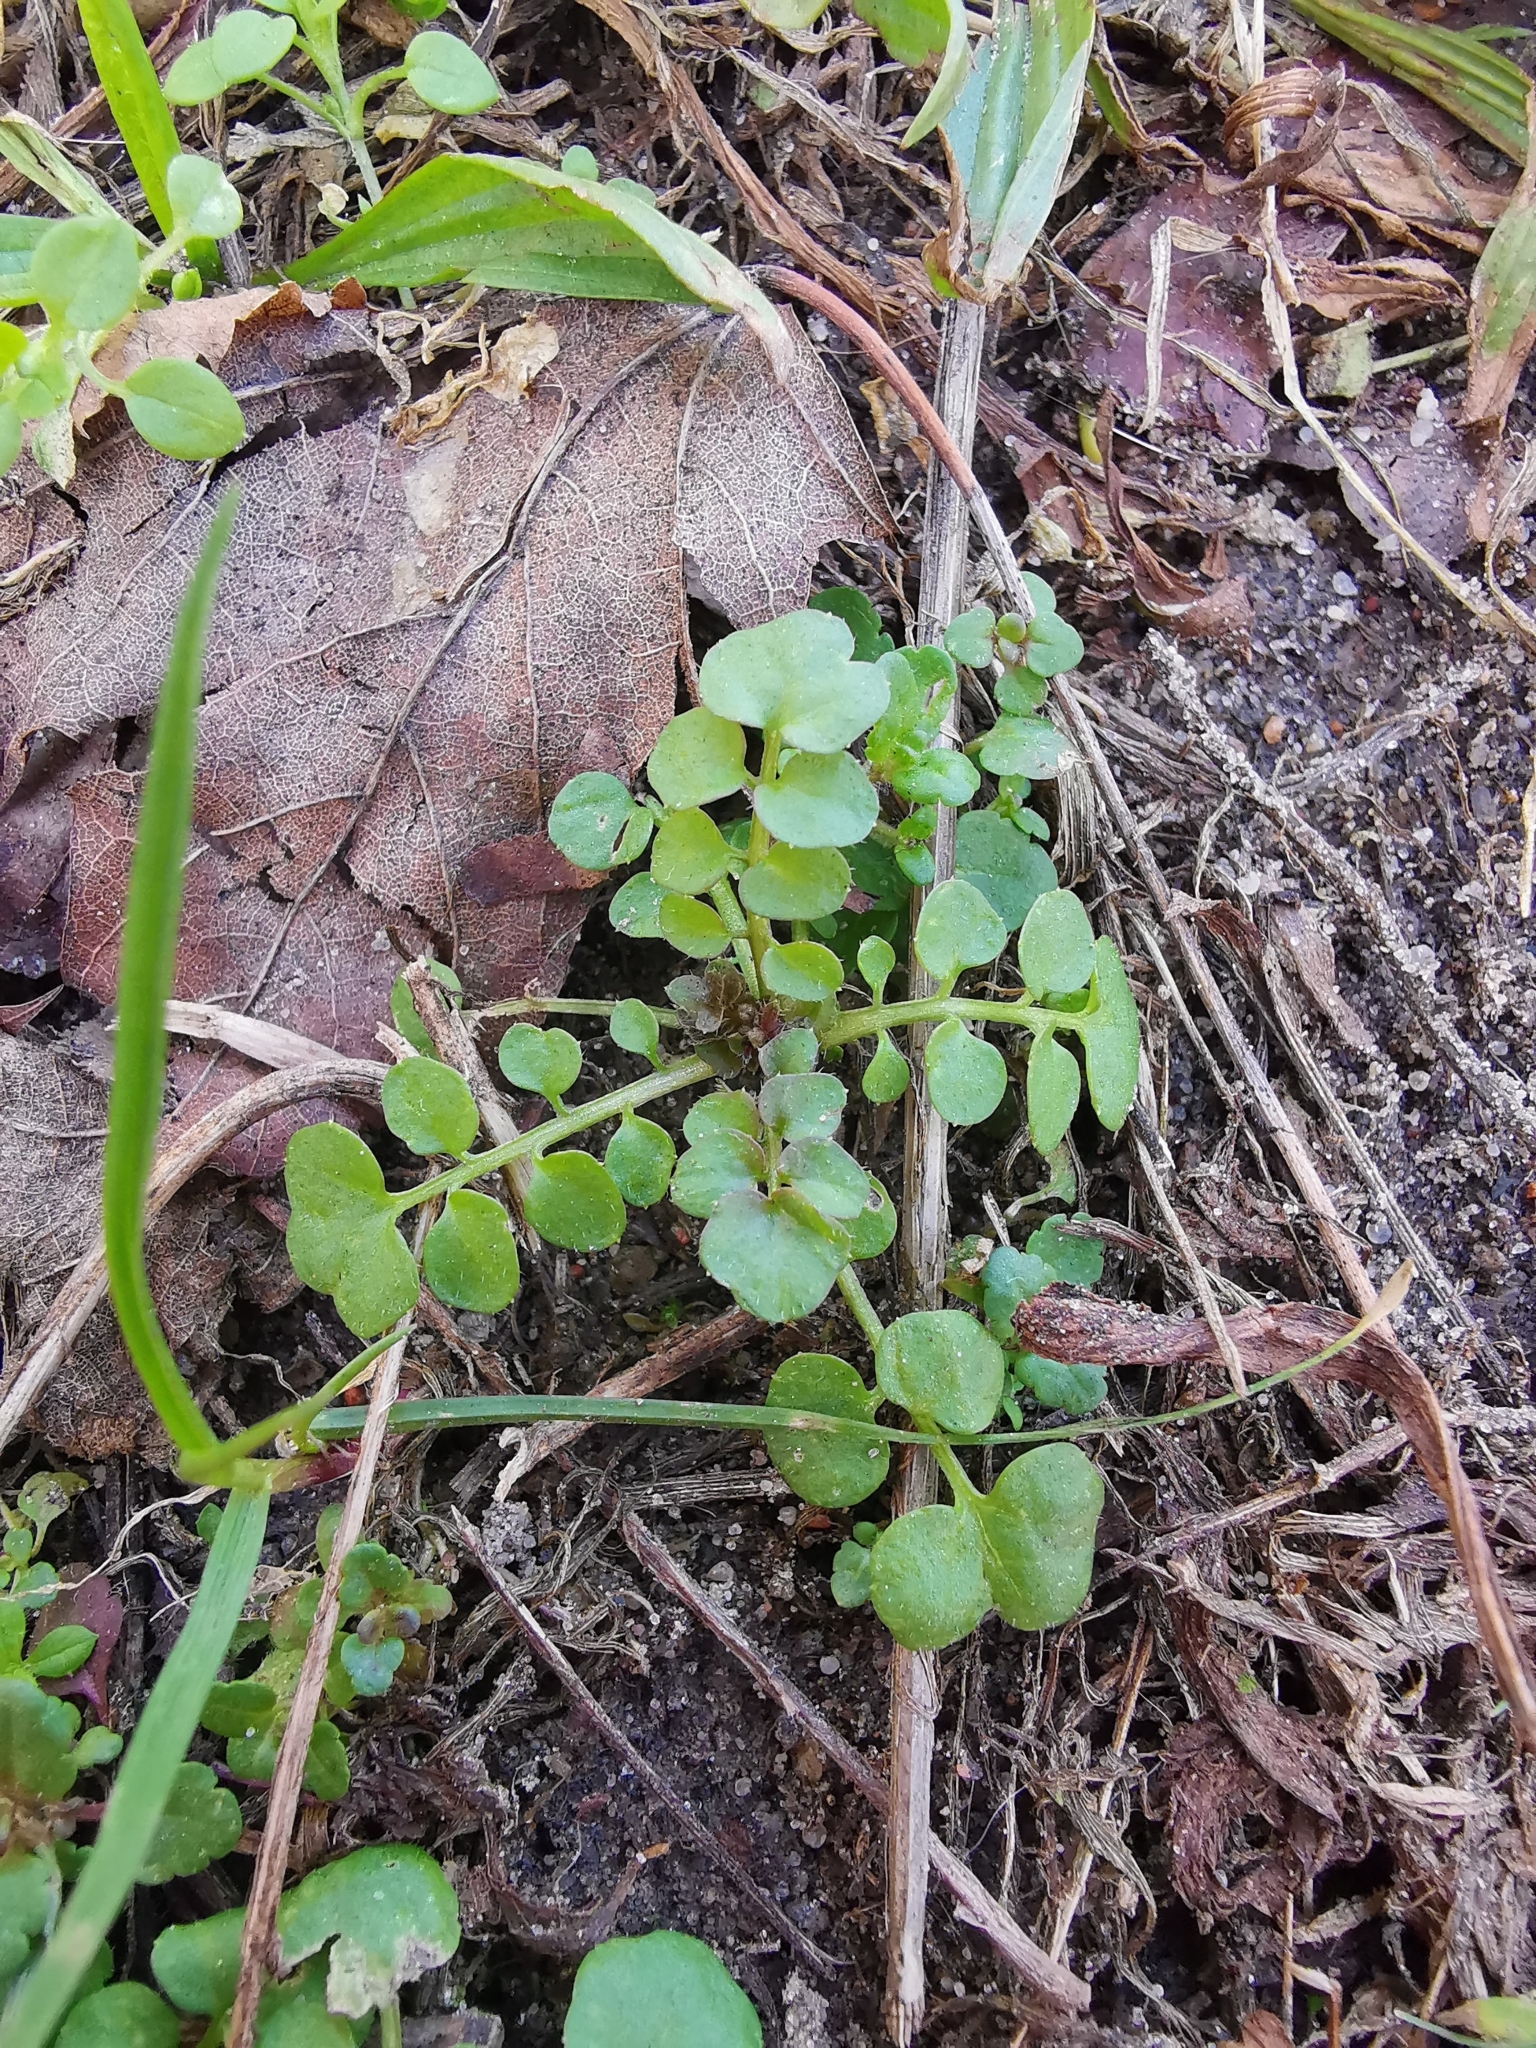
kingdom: Plantae
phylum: Tracheophyta
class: Magnoliopsida
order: Brassicales
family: Brassicaceae
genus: Cardamine
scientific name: Cardamine hirsuta
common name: Hairy bittercress
